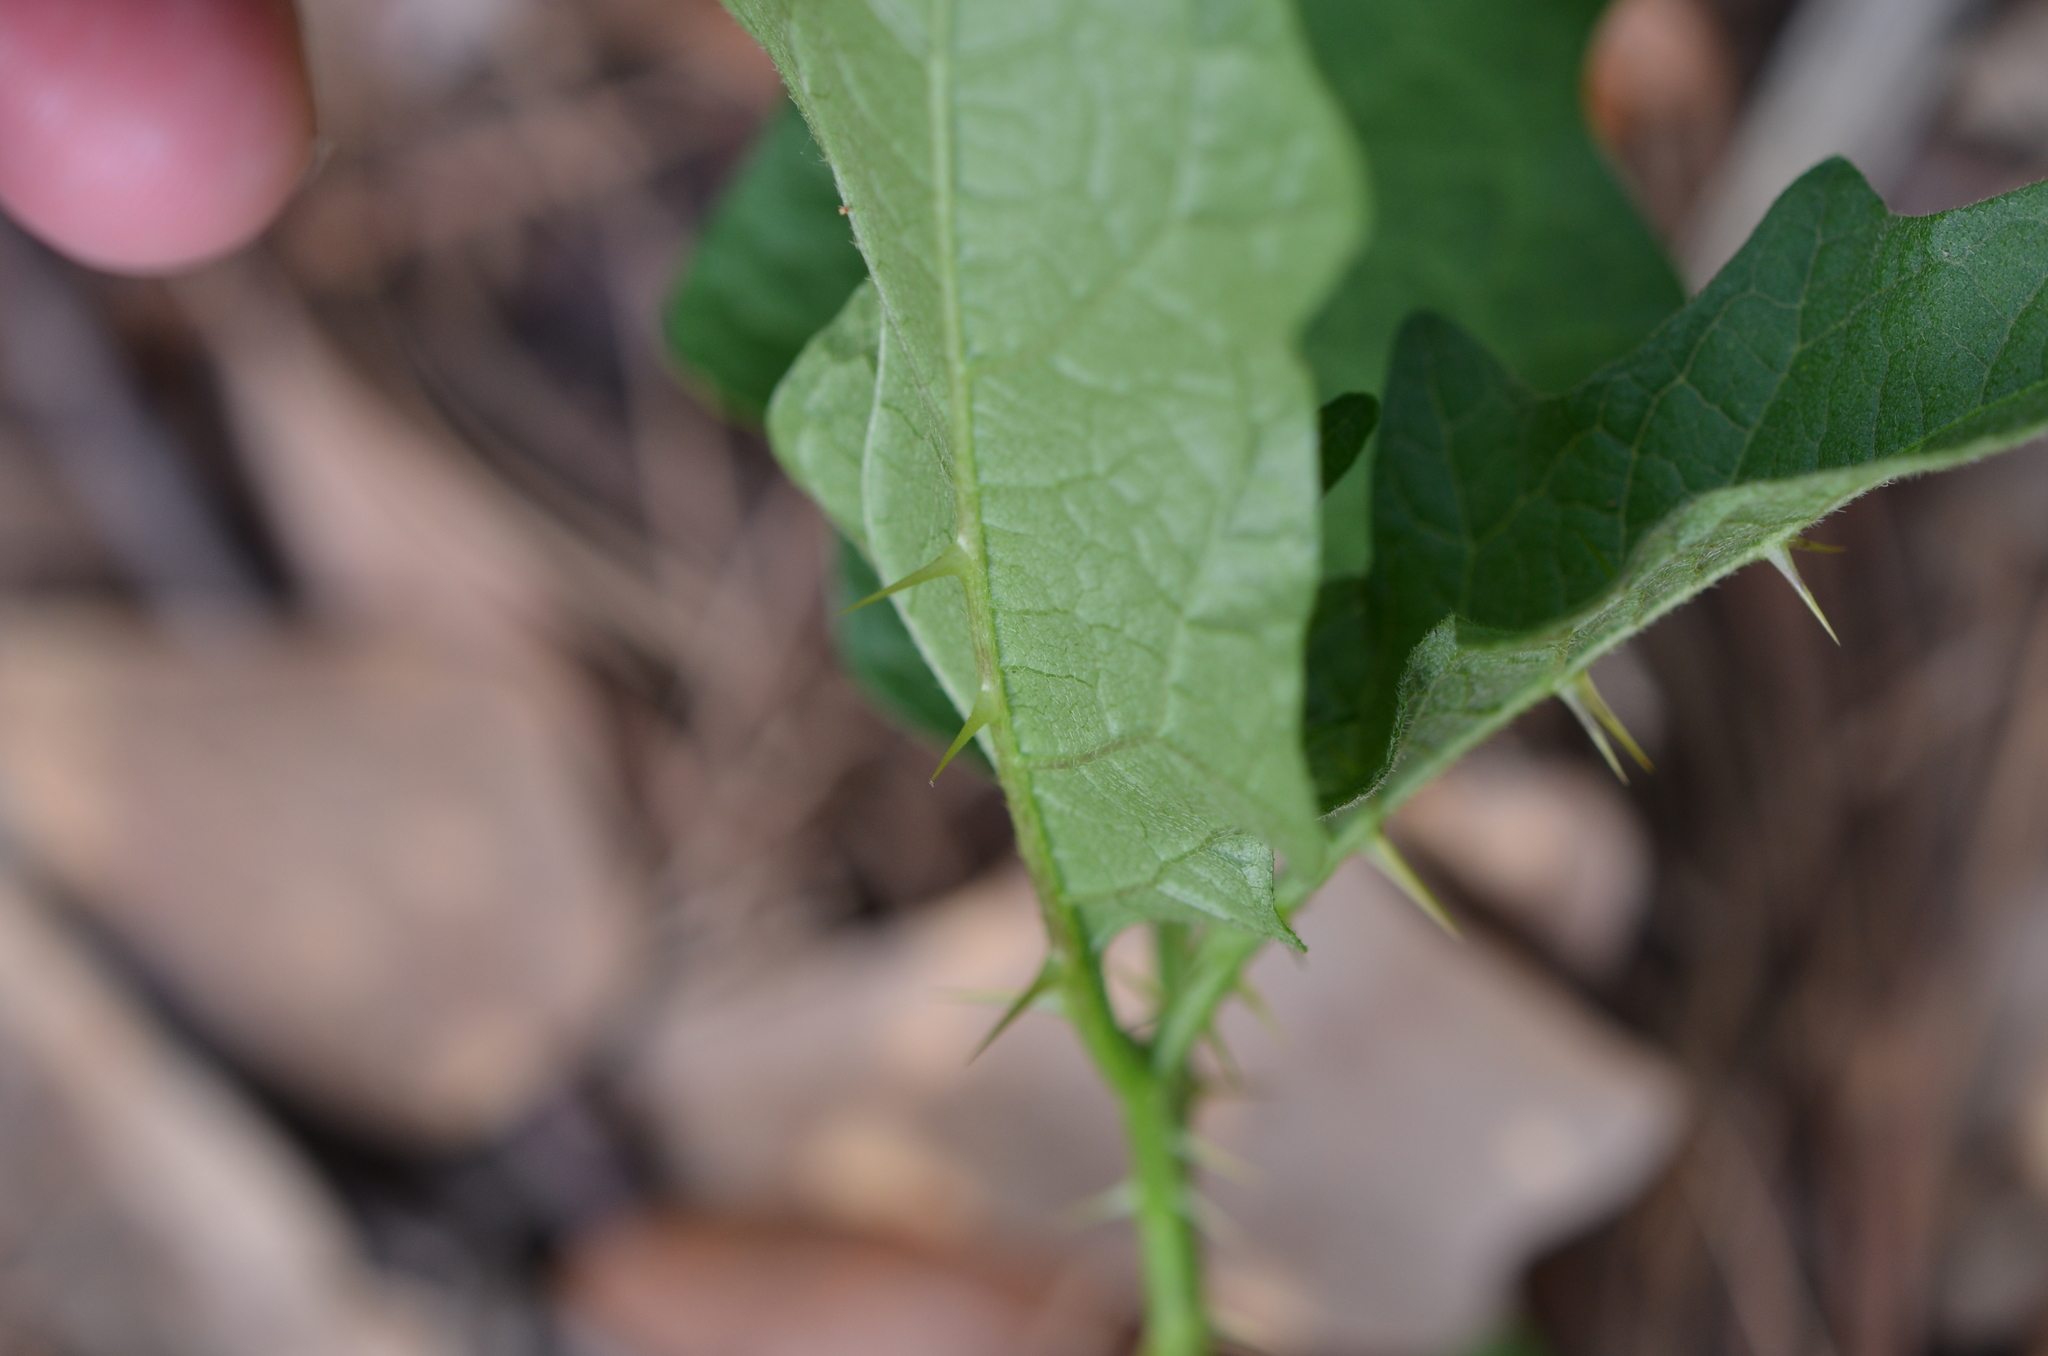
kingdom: Plantae
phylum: Tracheophyta
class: Magnoliopsida
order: Solanales
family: Solanaceae
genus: Solanum
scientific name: Solanum carolinense
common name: Horse-nettle
